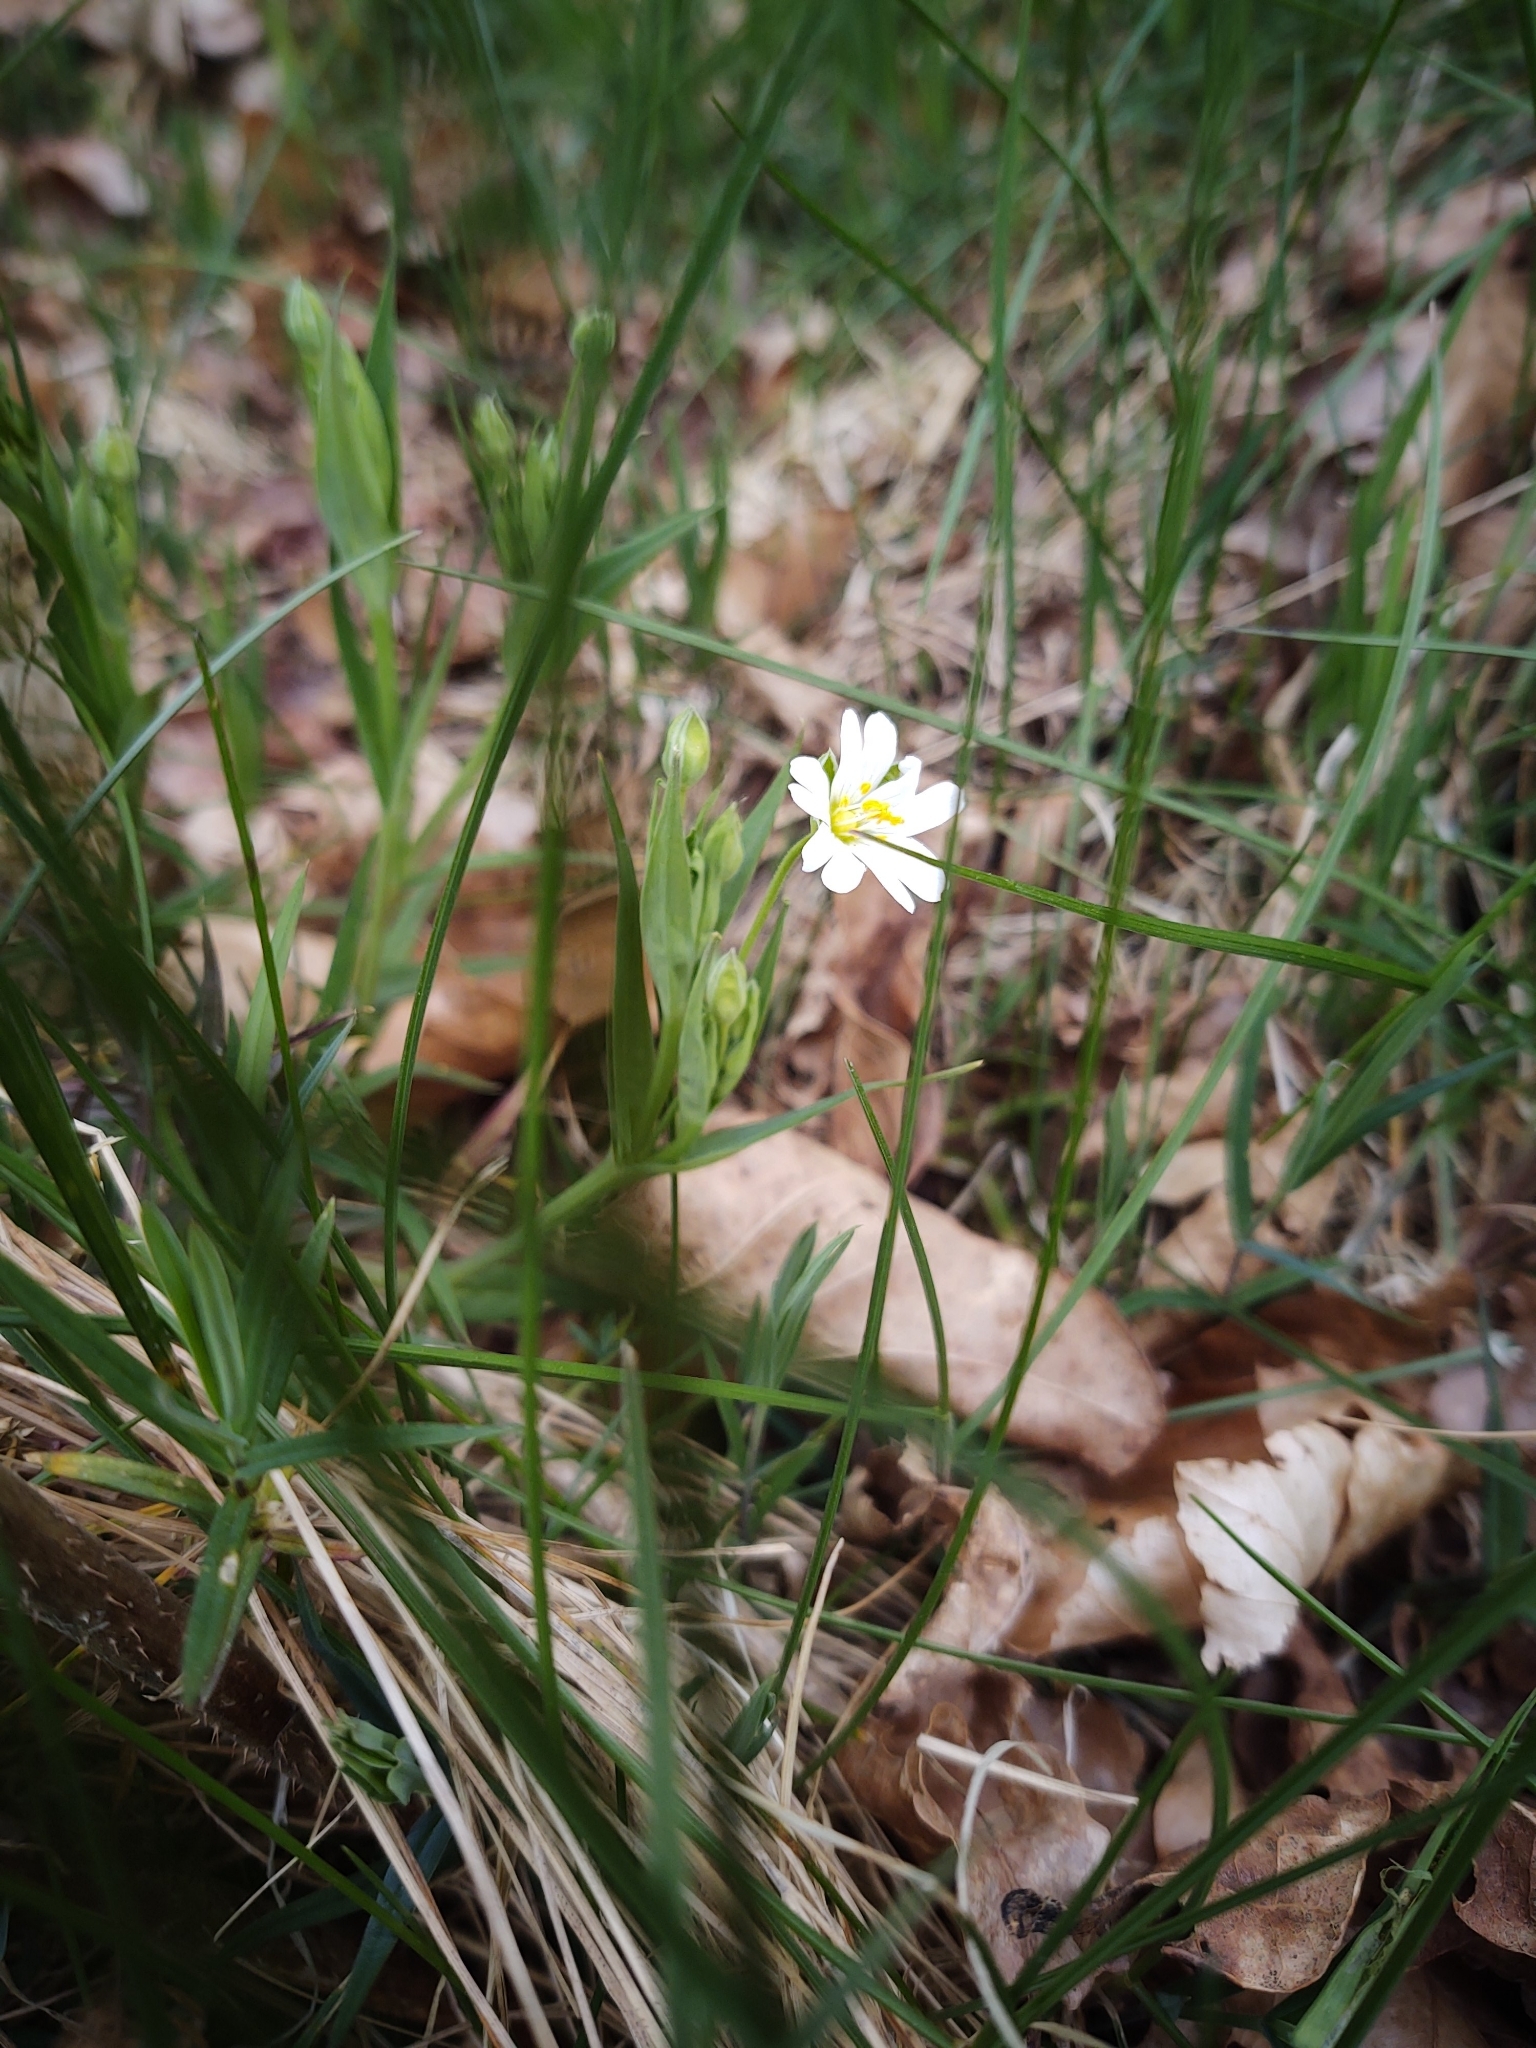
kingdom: Plantae
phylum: Tracheophyta
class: Magnoliopsida
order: Caryophyllales
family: Caryophyllaceae
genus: Rabelera
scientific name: Rabelera holostea
